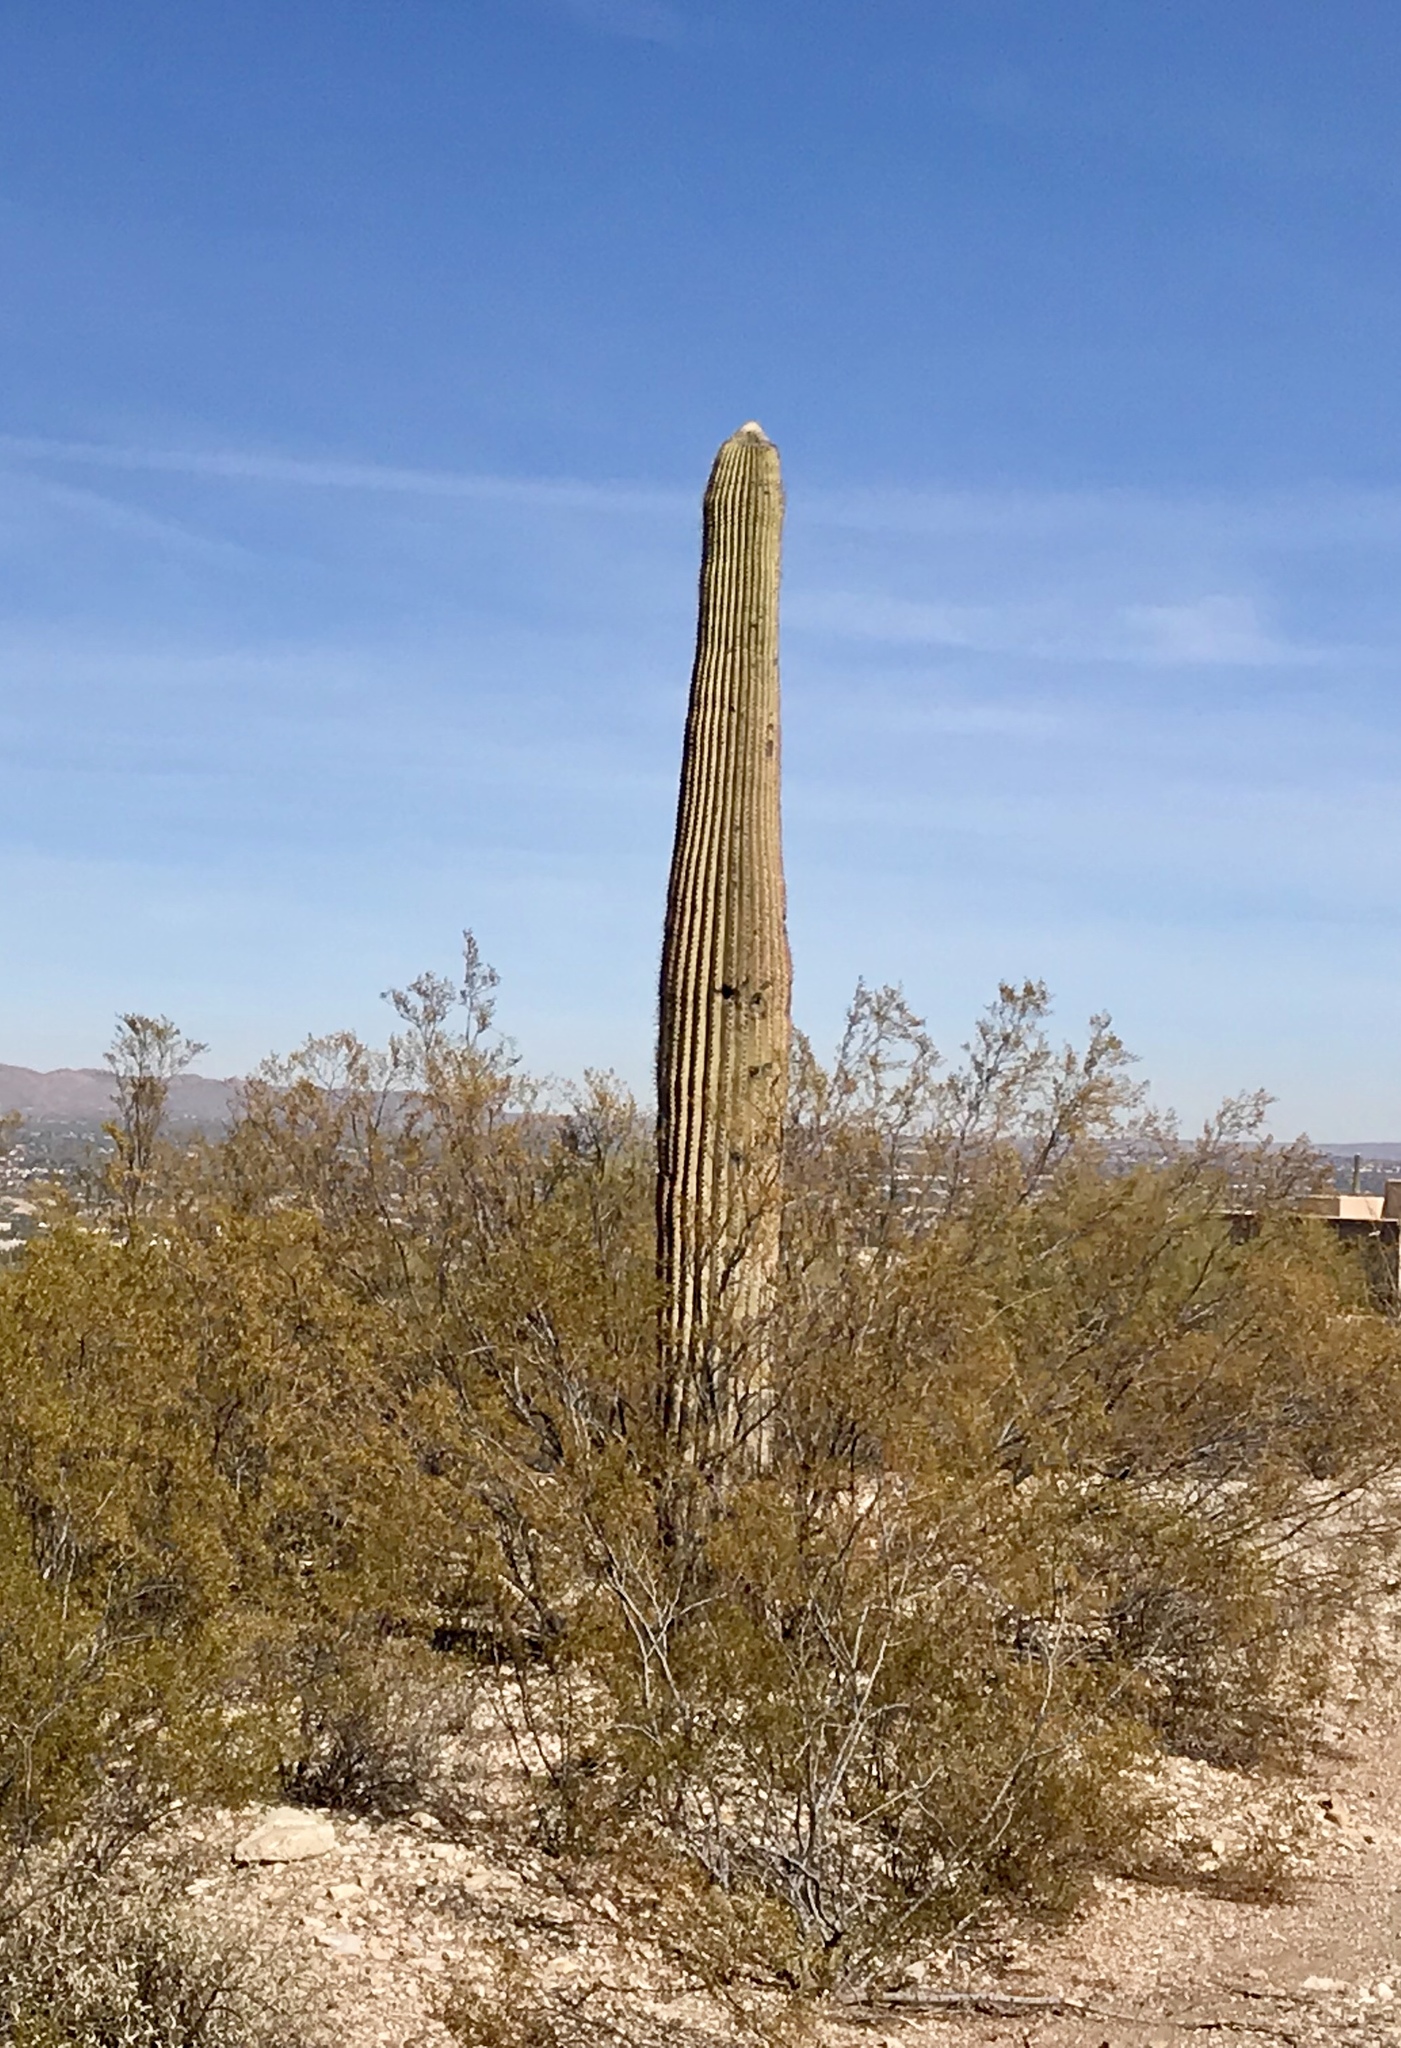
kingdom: Plantae
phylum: Tracheophyta
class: Magnoliopsida
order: Caryophyllales
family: Cactaceae
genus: Carnegiea
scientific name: Carnegiea gigantea
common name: Saguaro
